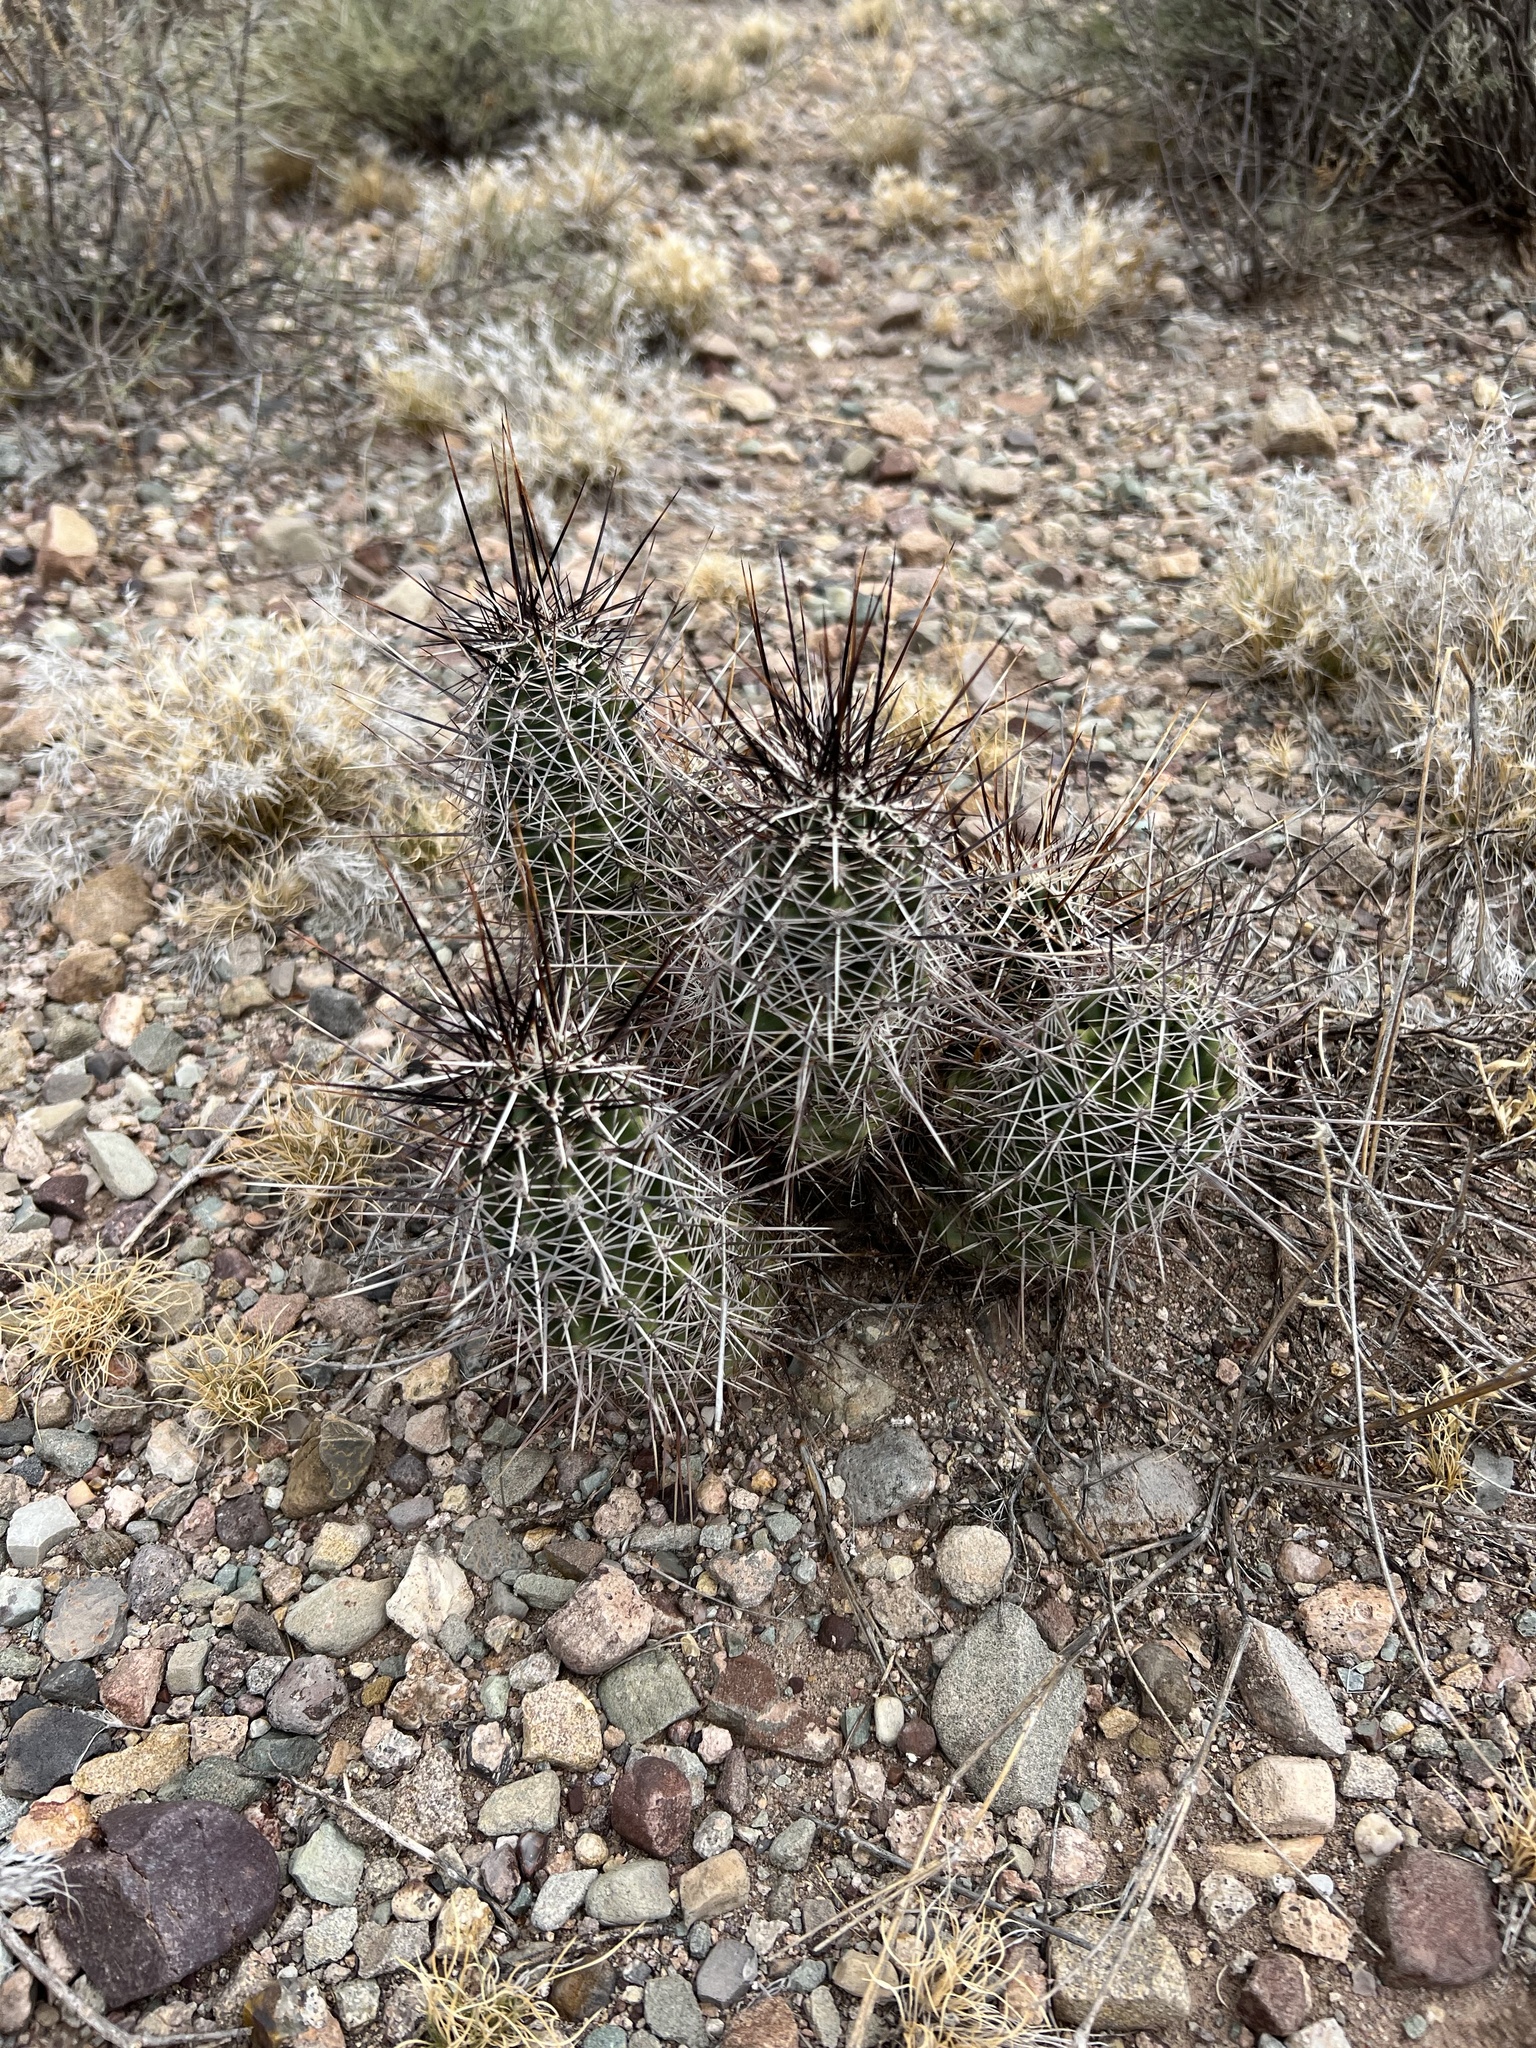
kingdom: Plantae
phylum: Tracheophyta
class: Magnoliopsida
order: Caryophyllales
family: Cactaceae
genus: Echinocereus
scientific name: Echinocereus fasciculatus
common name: Bundle hedgehog
